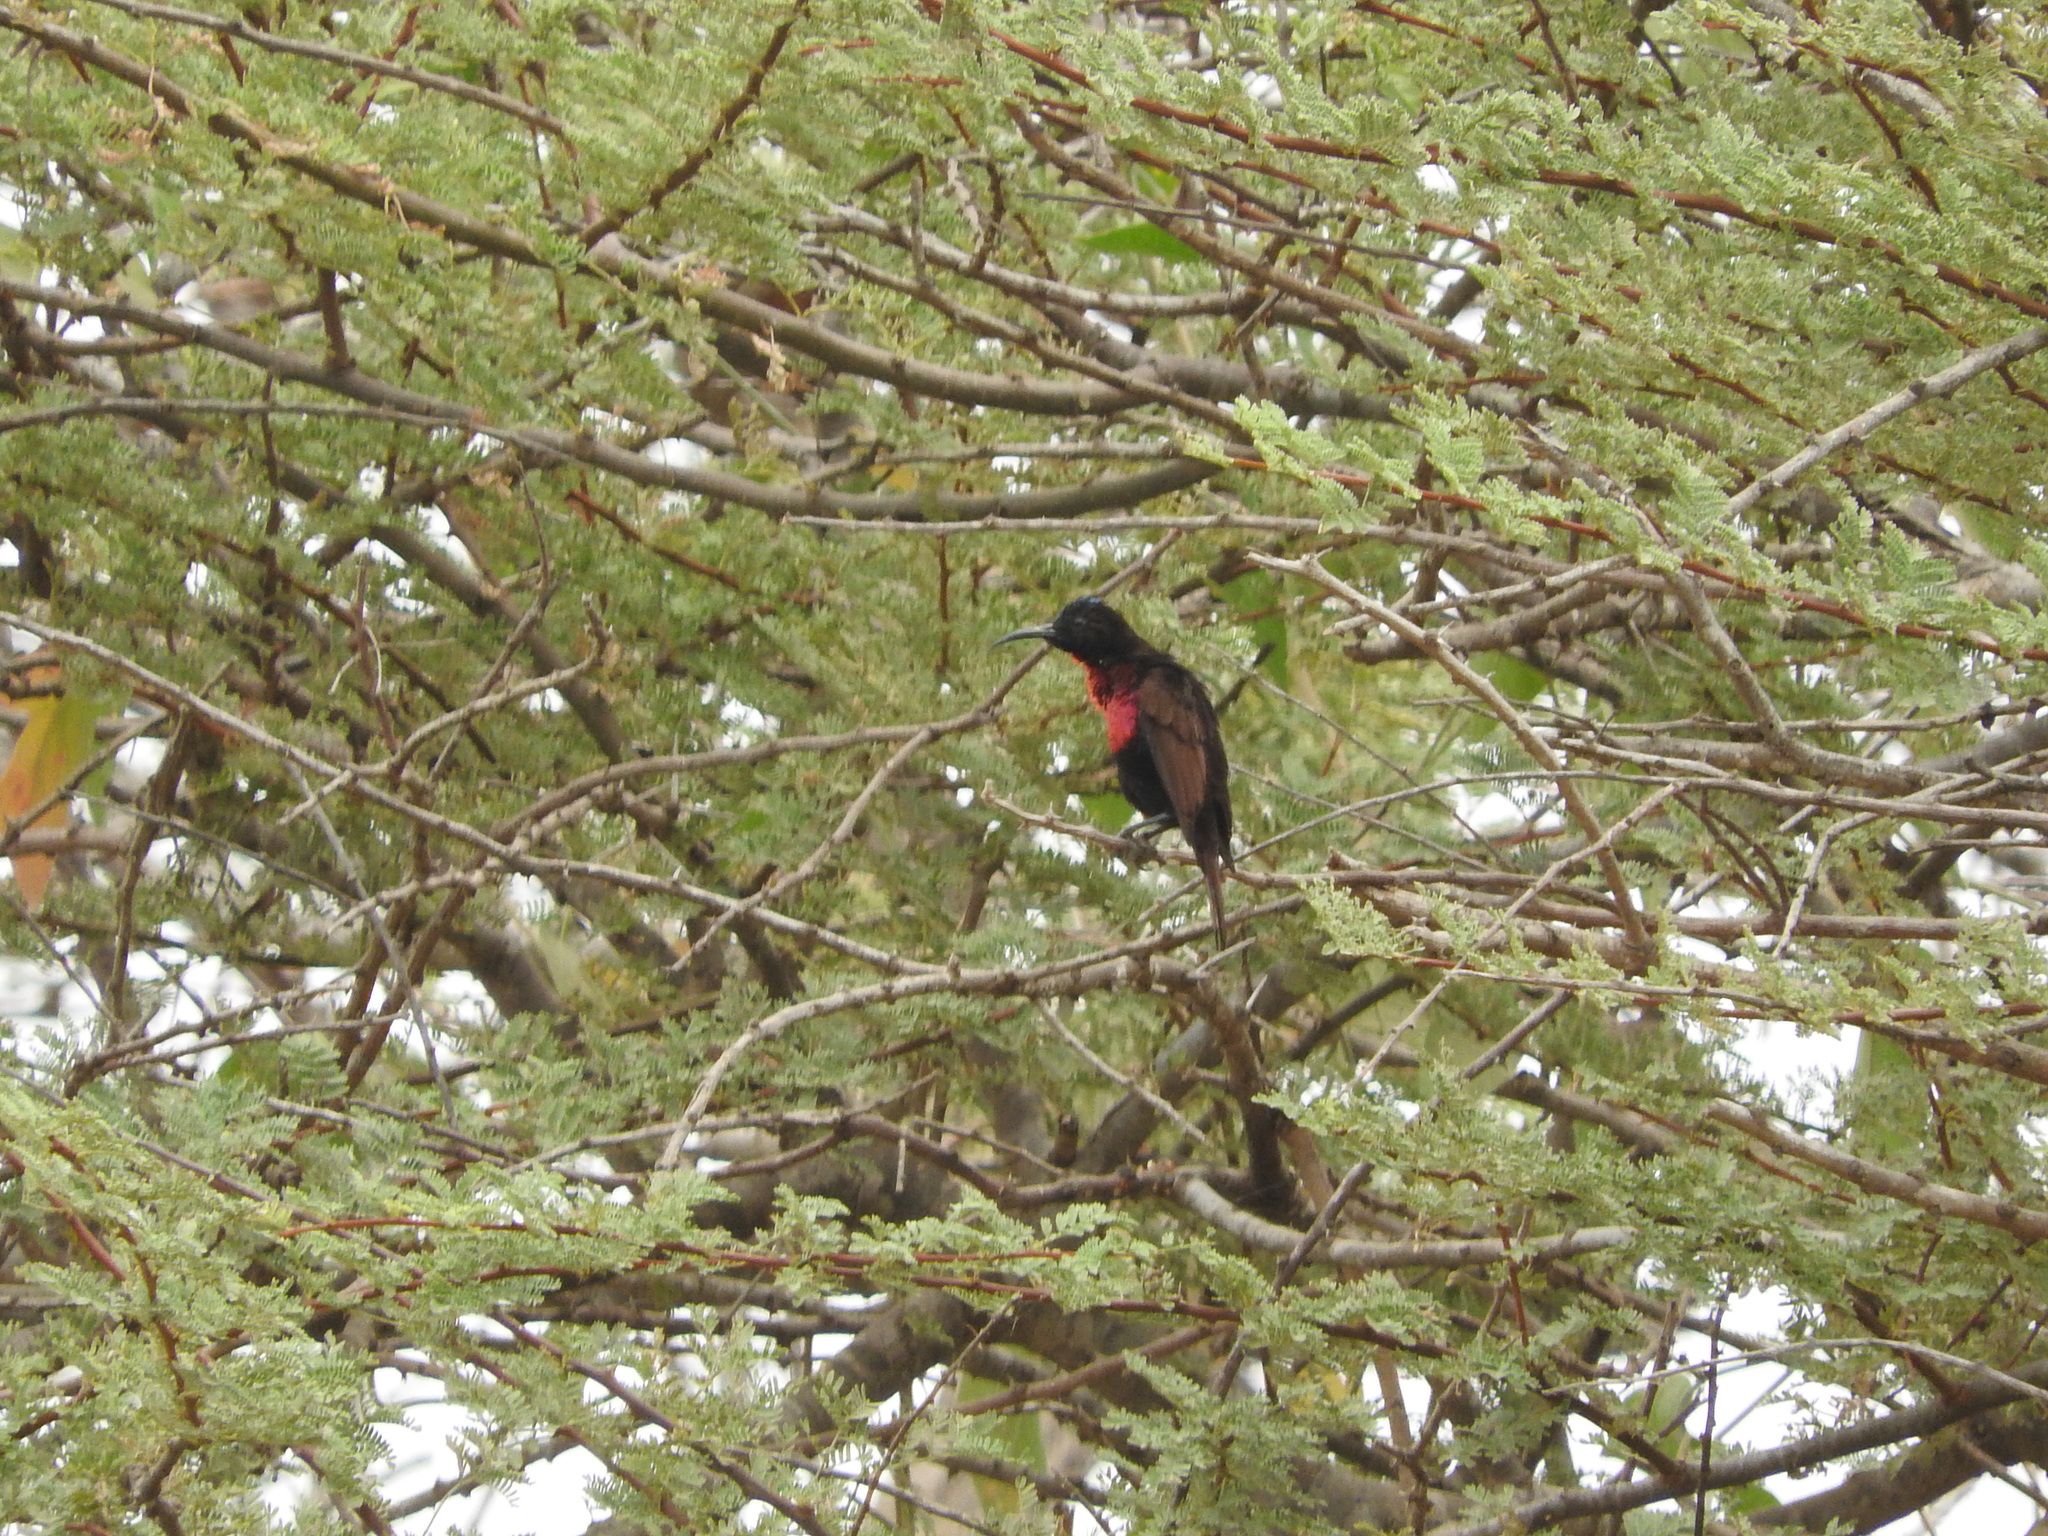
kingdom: Animalia
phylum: Chordata
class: Aves
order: Passeriformes
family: Nectariniidae
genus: Chalcomitra
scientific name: Chalcomitra senegalensis
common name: Scarlet-chested sunbird
